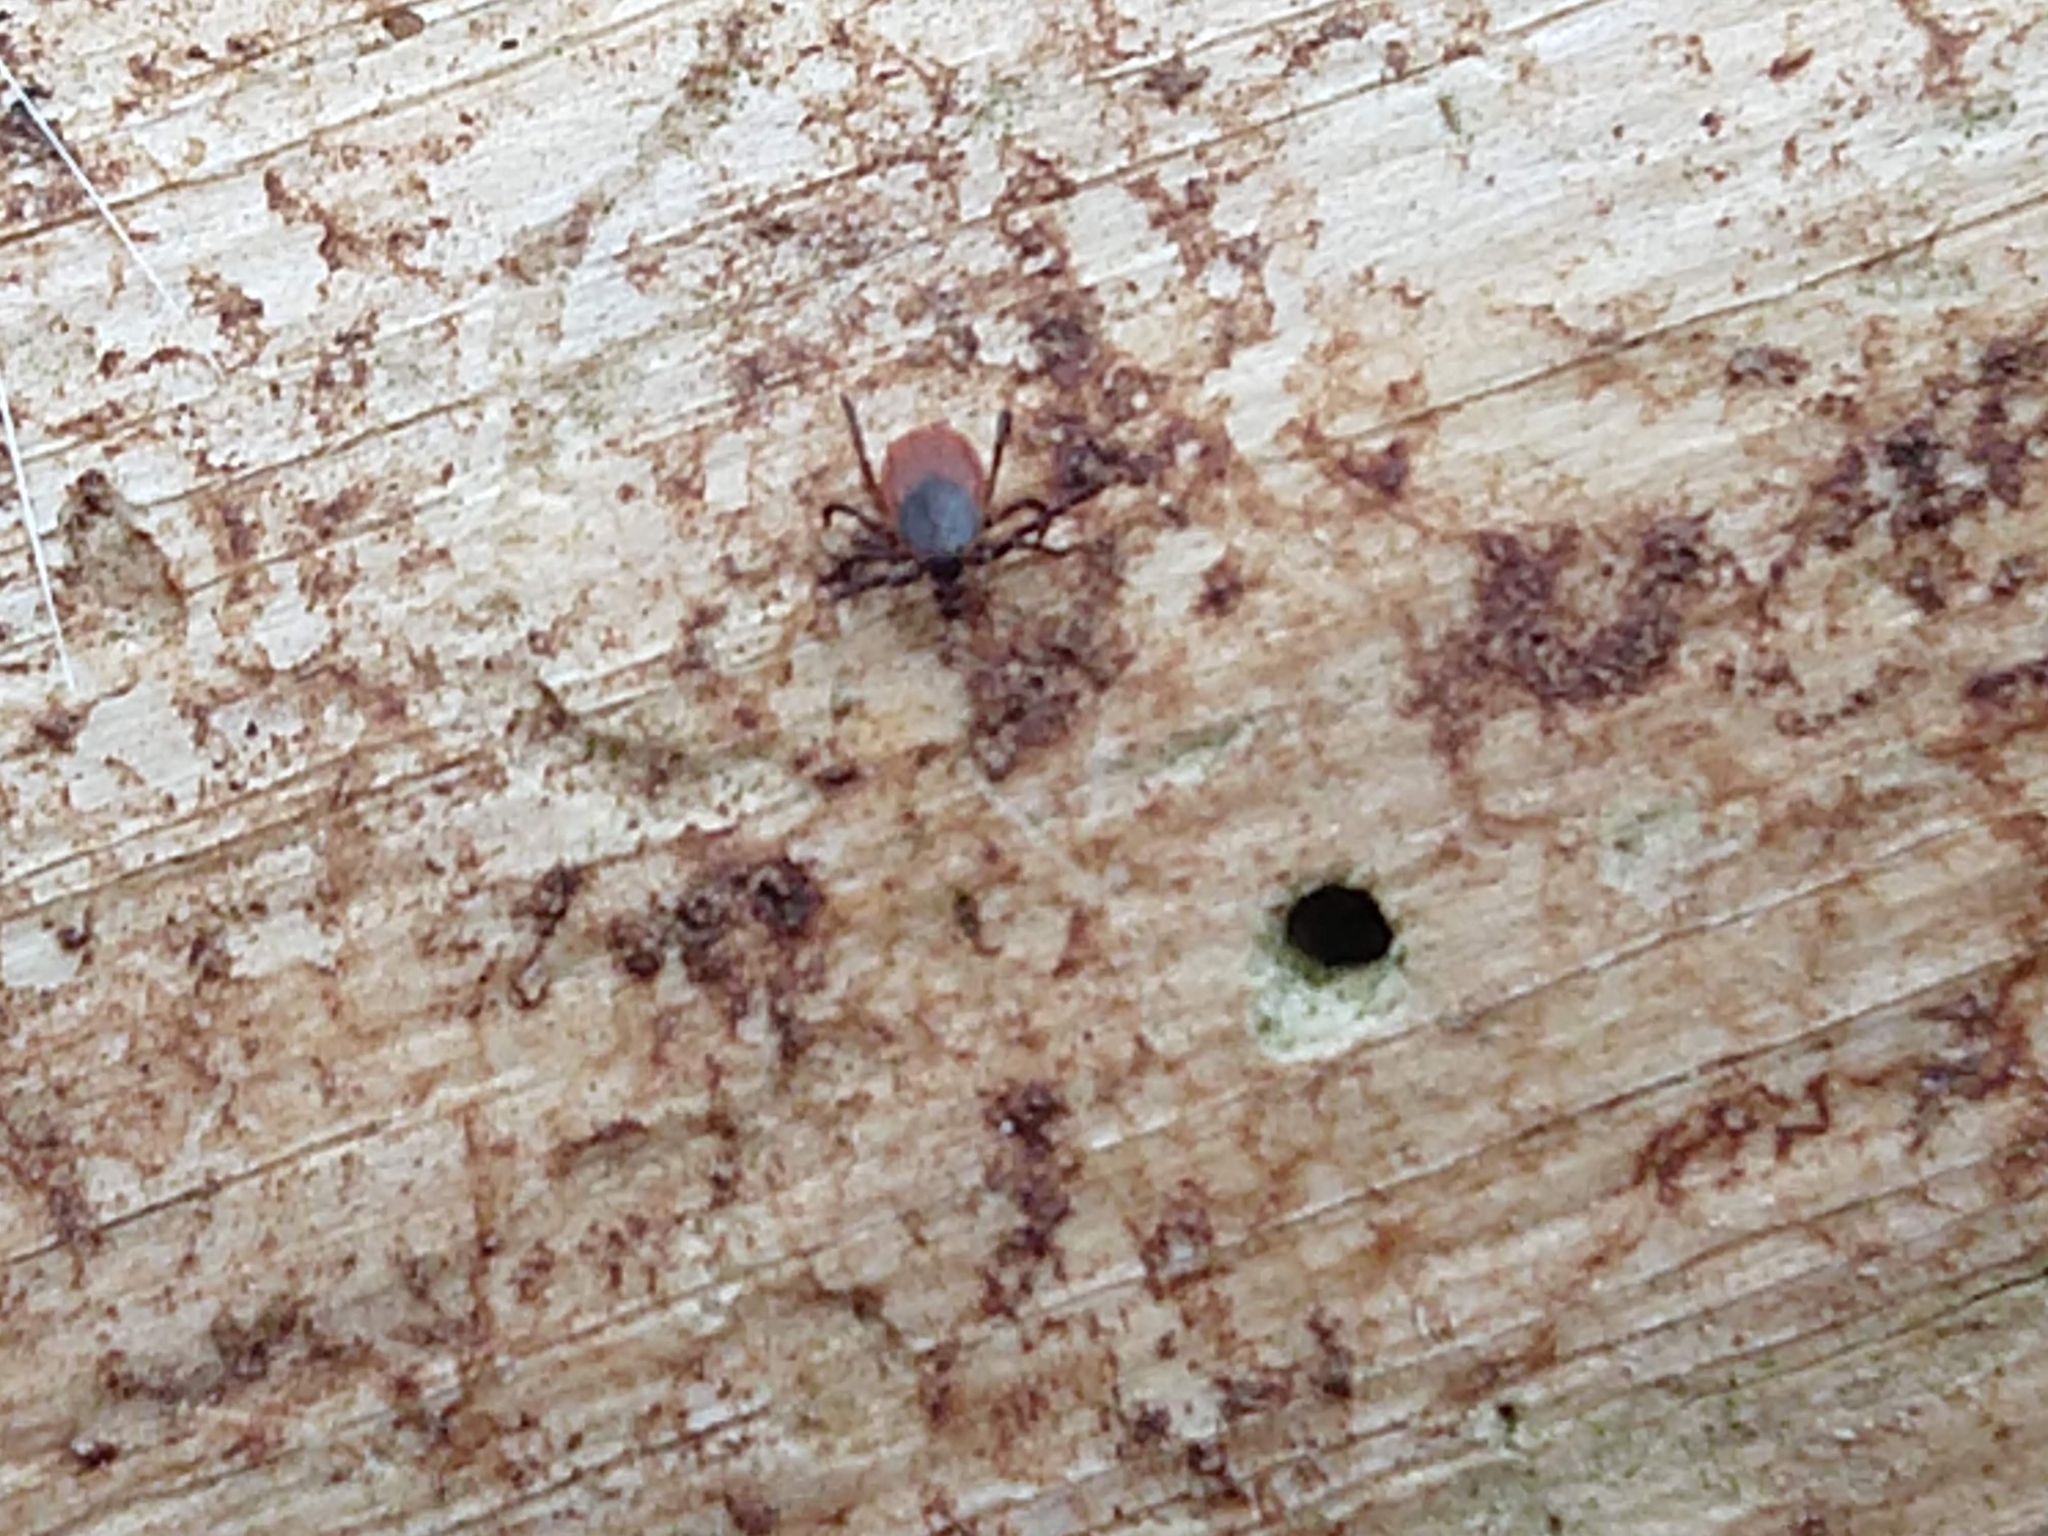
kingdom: Animalia
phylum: Arthropoda
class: Arachnida
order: Ixodida
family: Ixodidae
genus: Ixodes
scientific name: Ixodes scapularis
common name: Black legged tick
